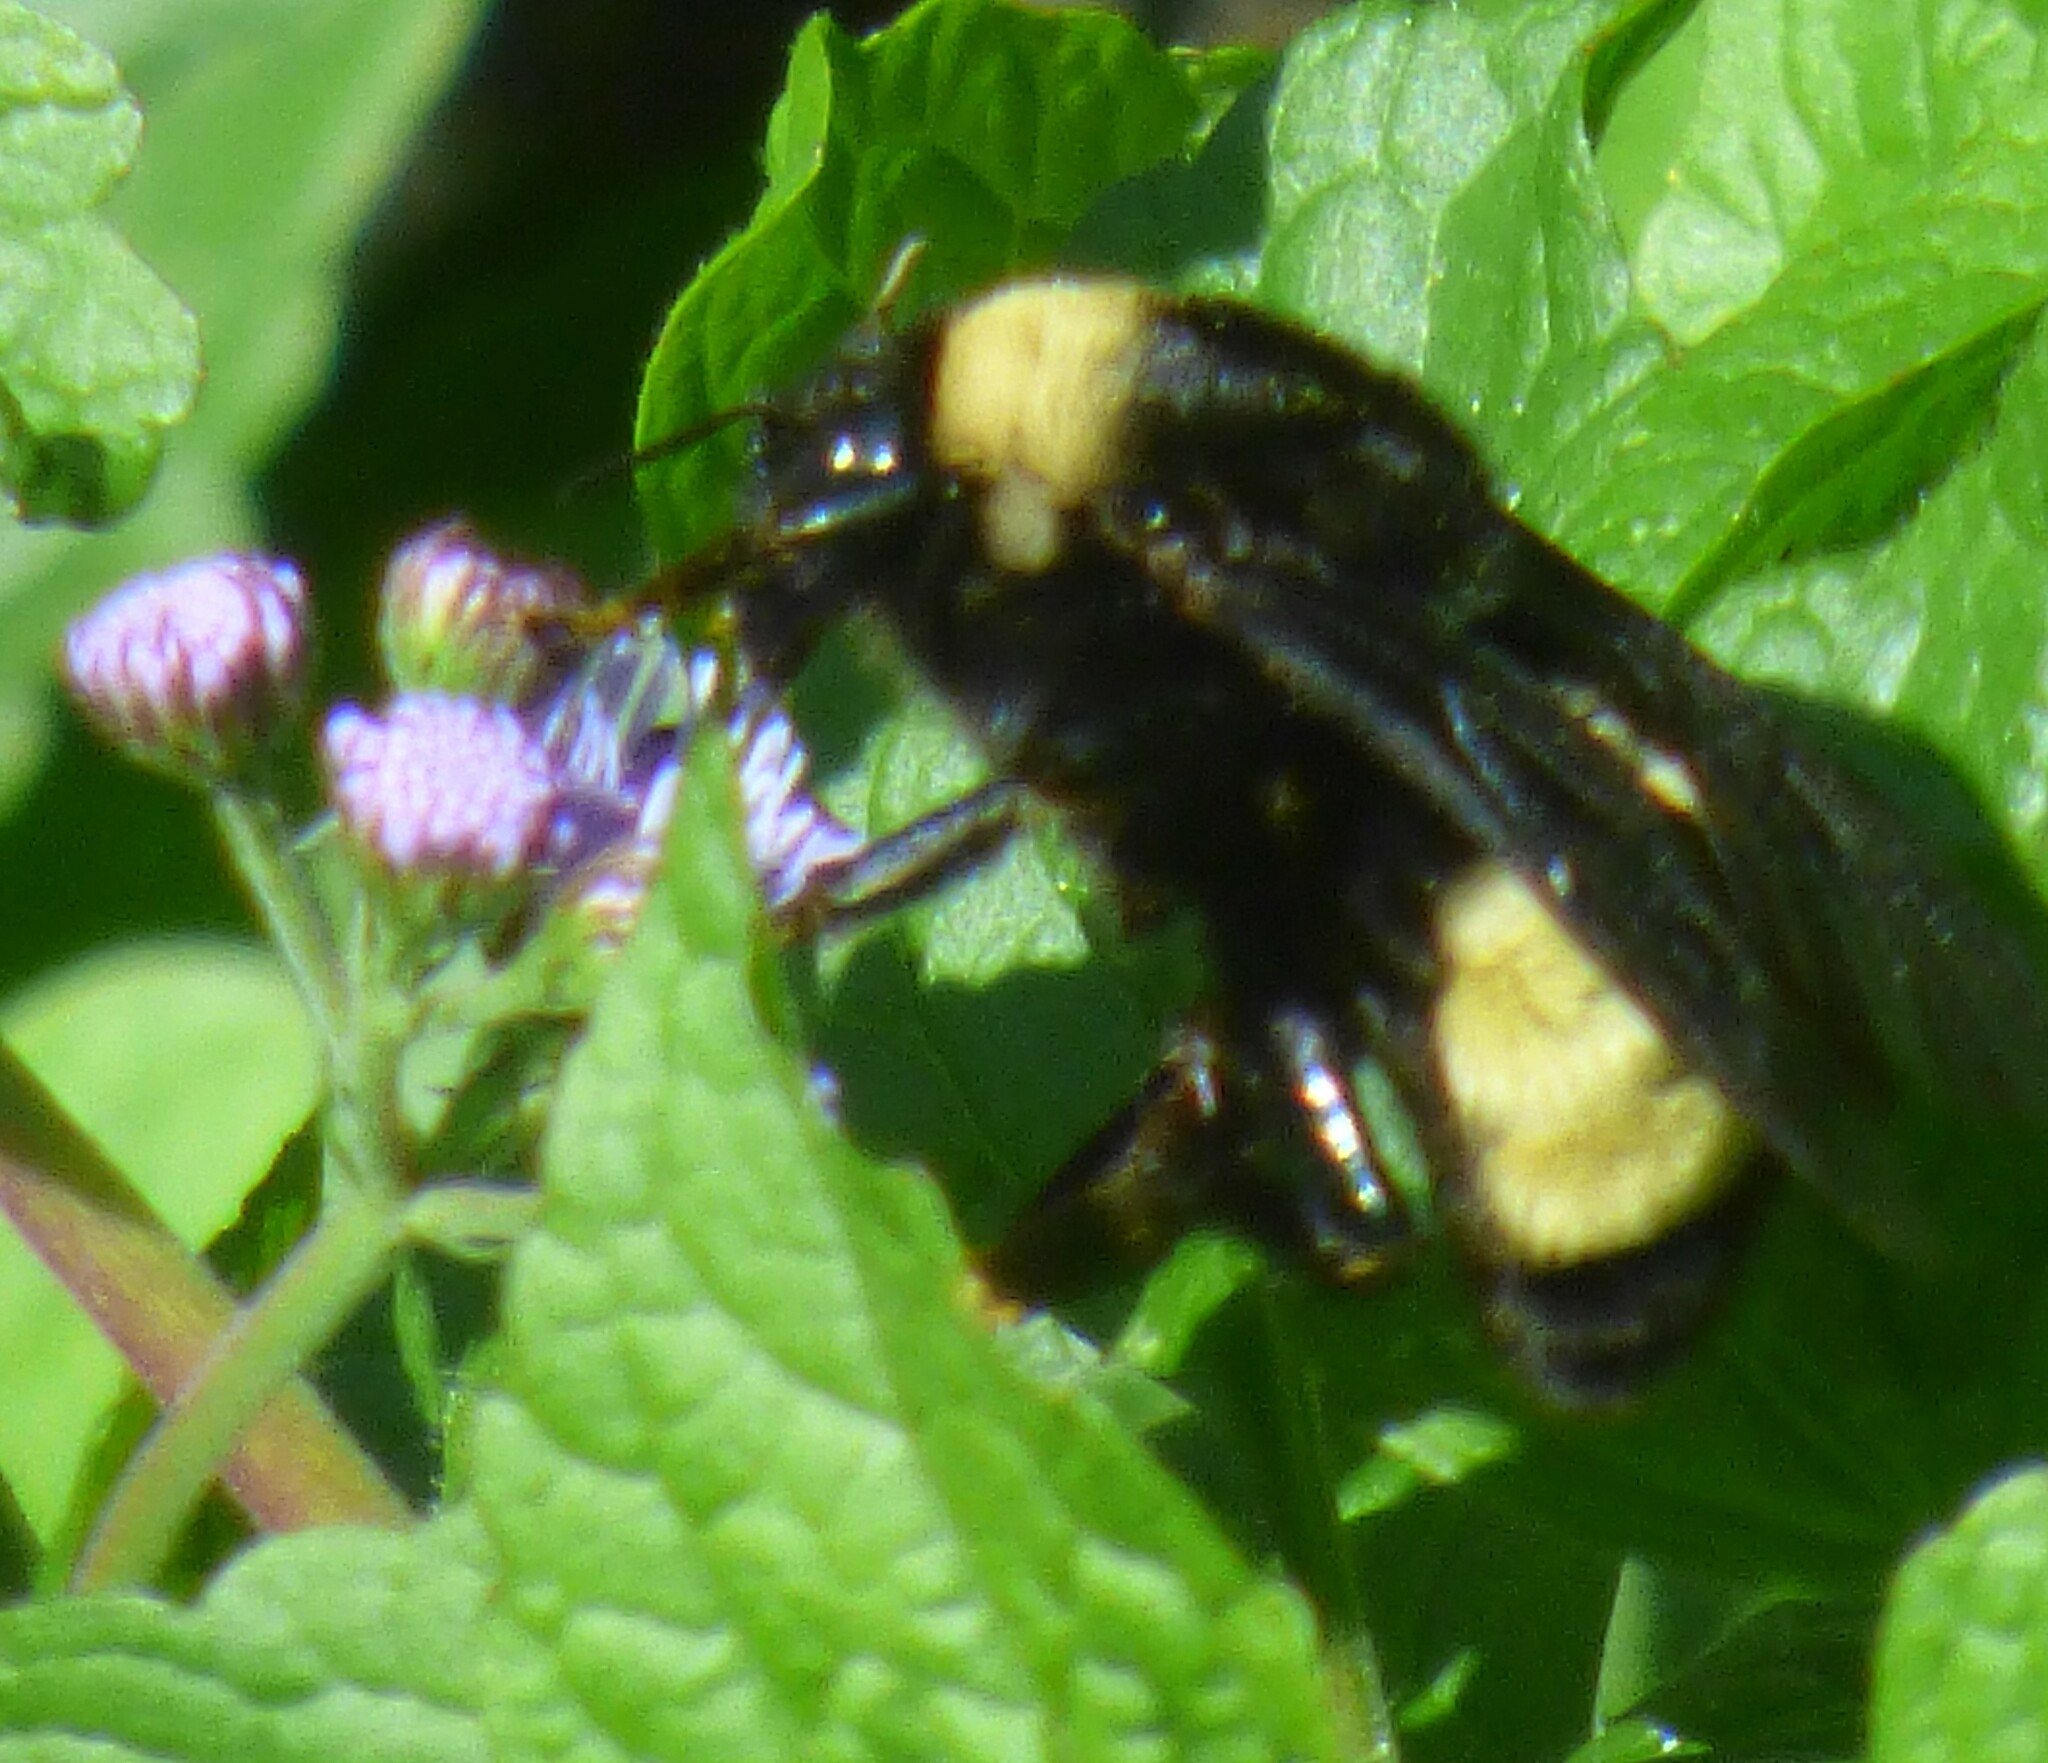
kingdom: Animalia
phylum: Arthropoda
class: Insecta
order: Hymenoptera
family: Apidae
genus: Bombus
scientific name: Bombus pensylvanicus
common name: Bumble bee
